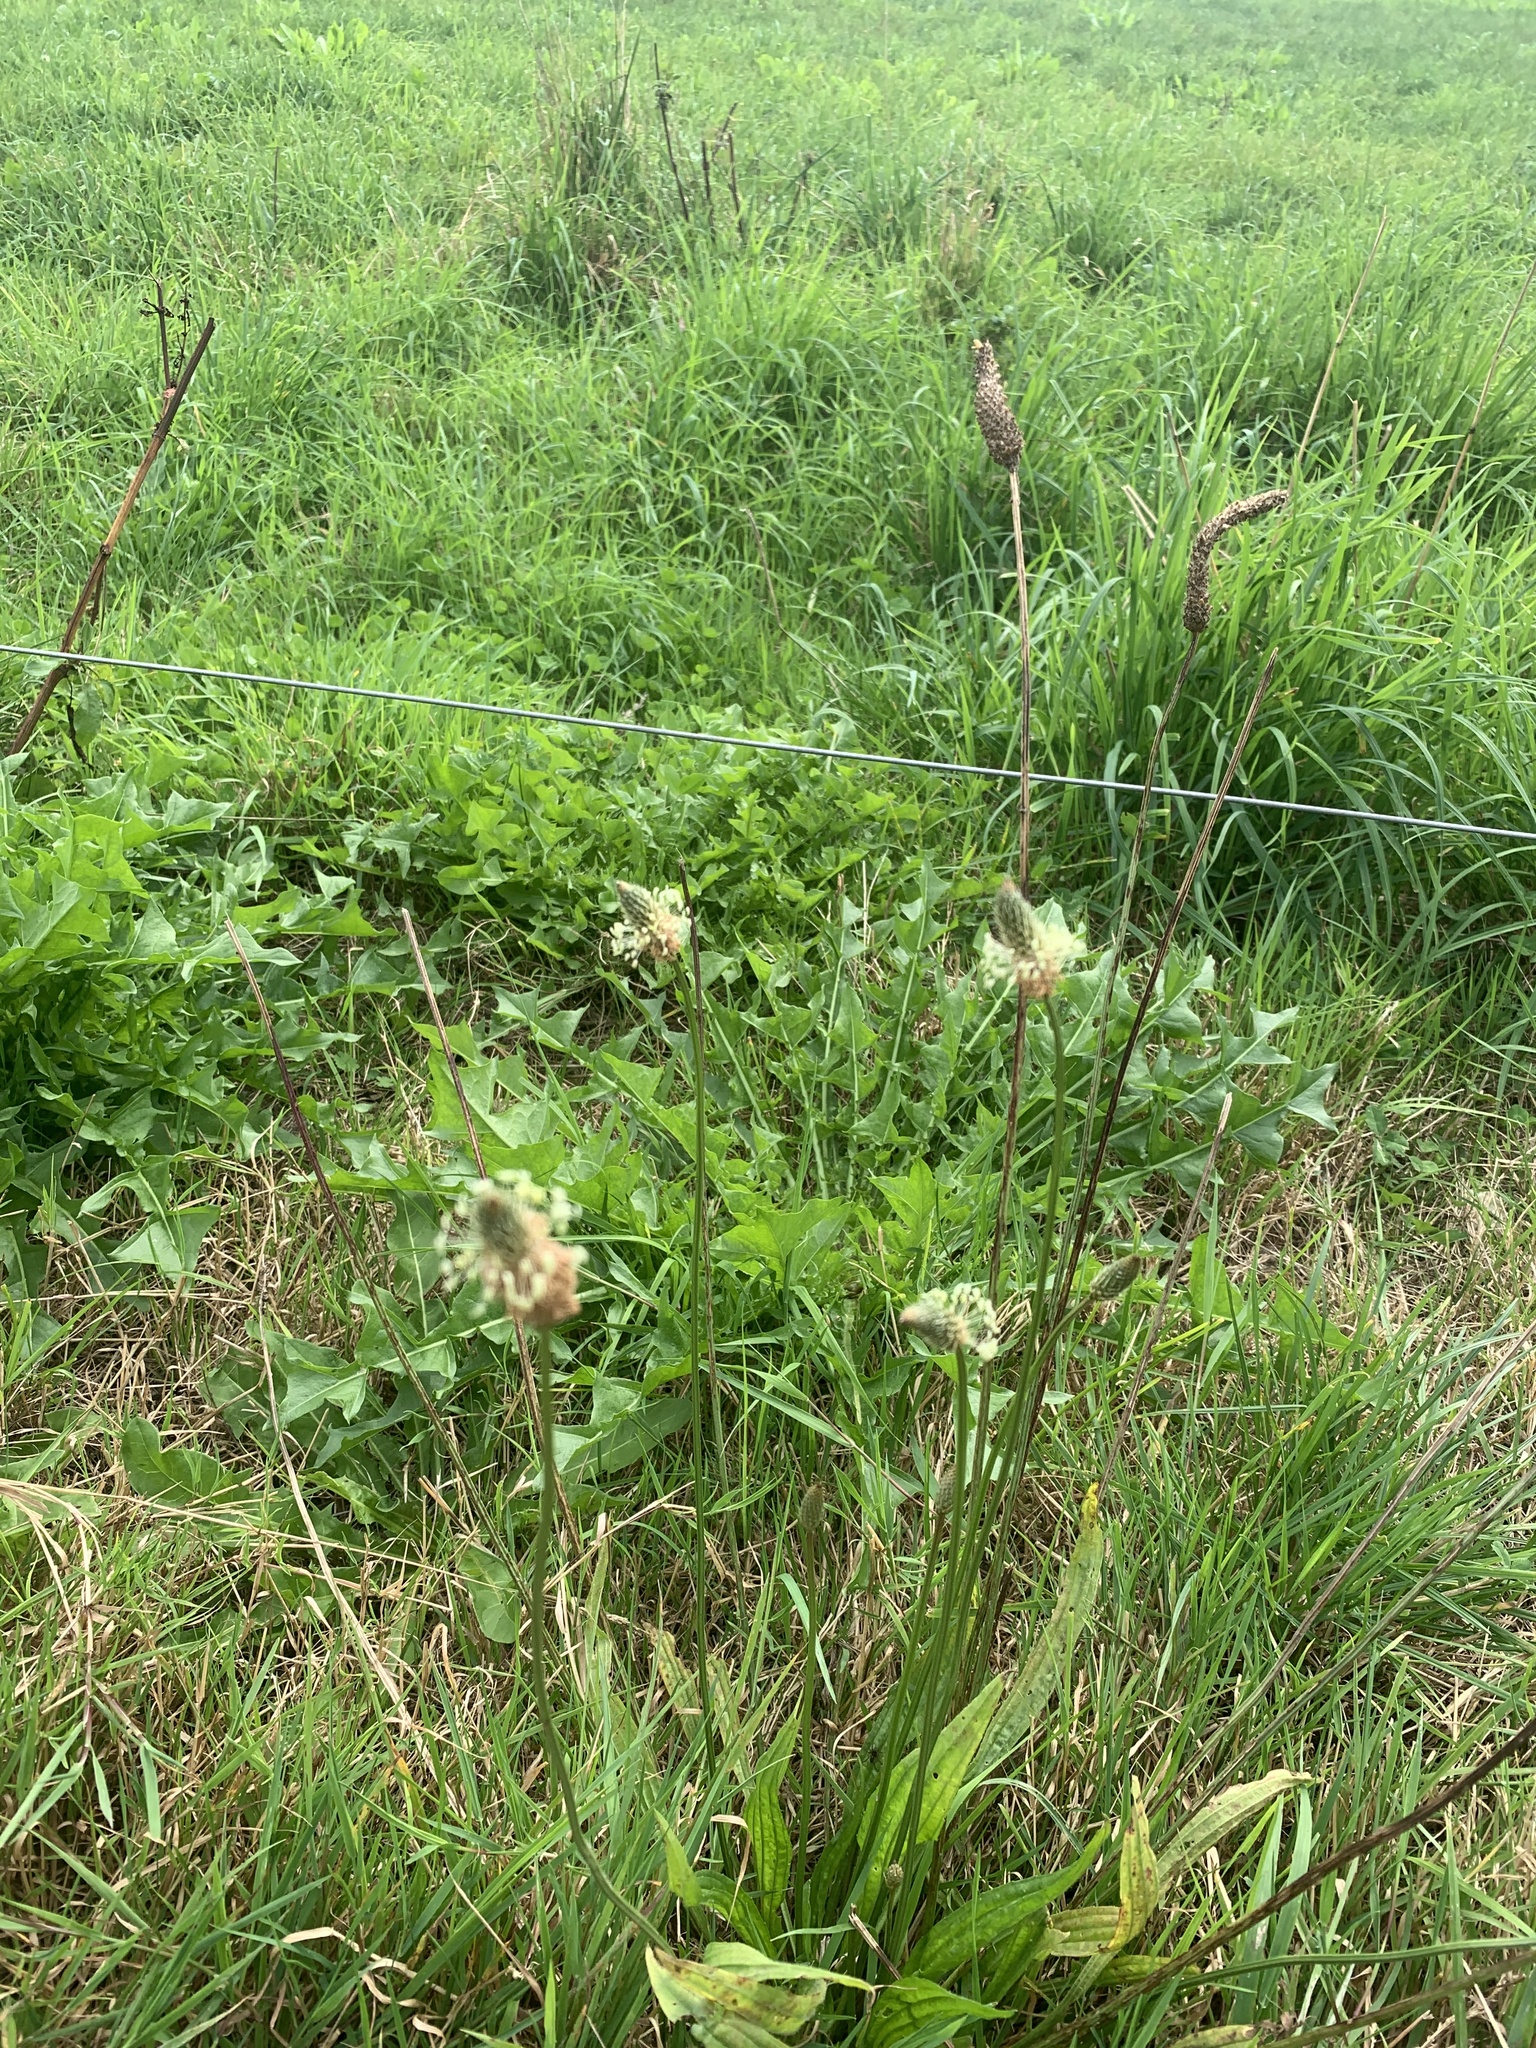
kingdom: Plantae
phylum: Tracheophyta
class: Magnoliopsida
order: Lamiales
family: Plantaginaceae
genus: Plantago
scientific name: Plantago lanceolata
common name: Ribwort plantain
